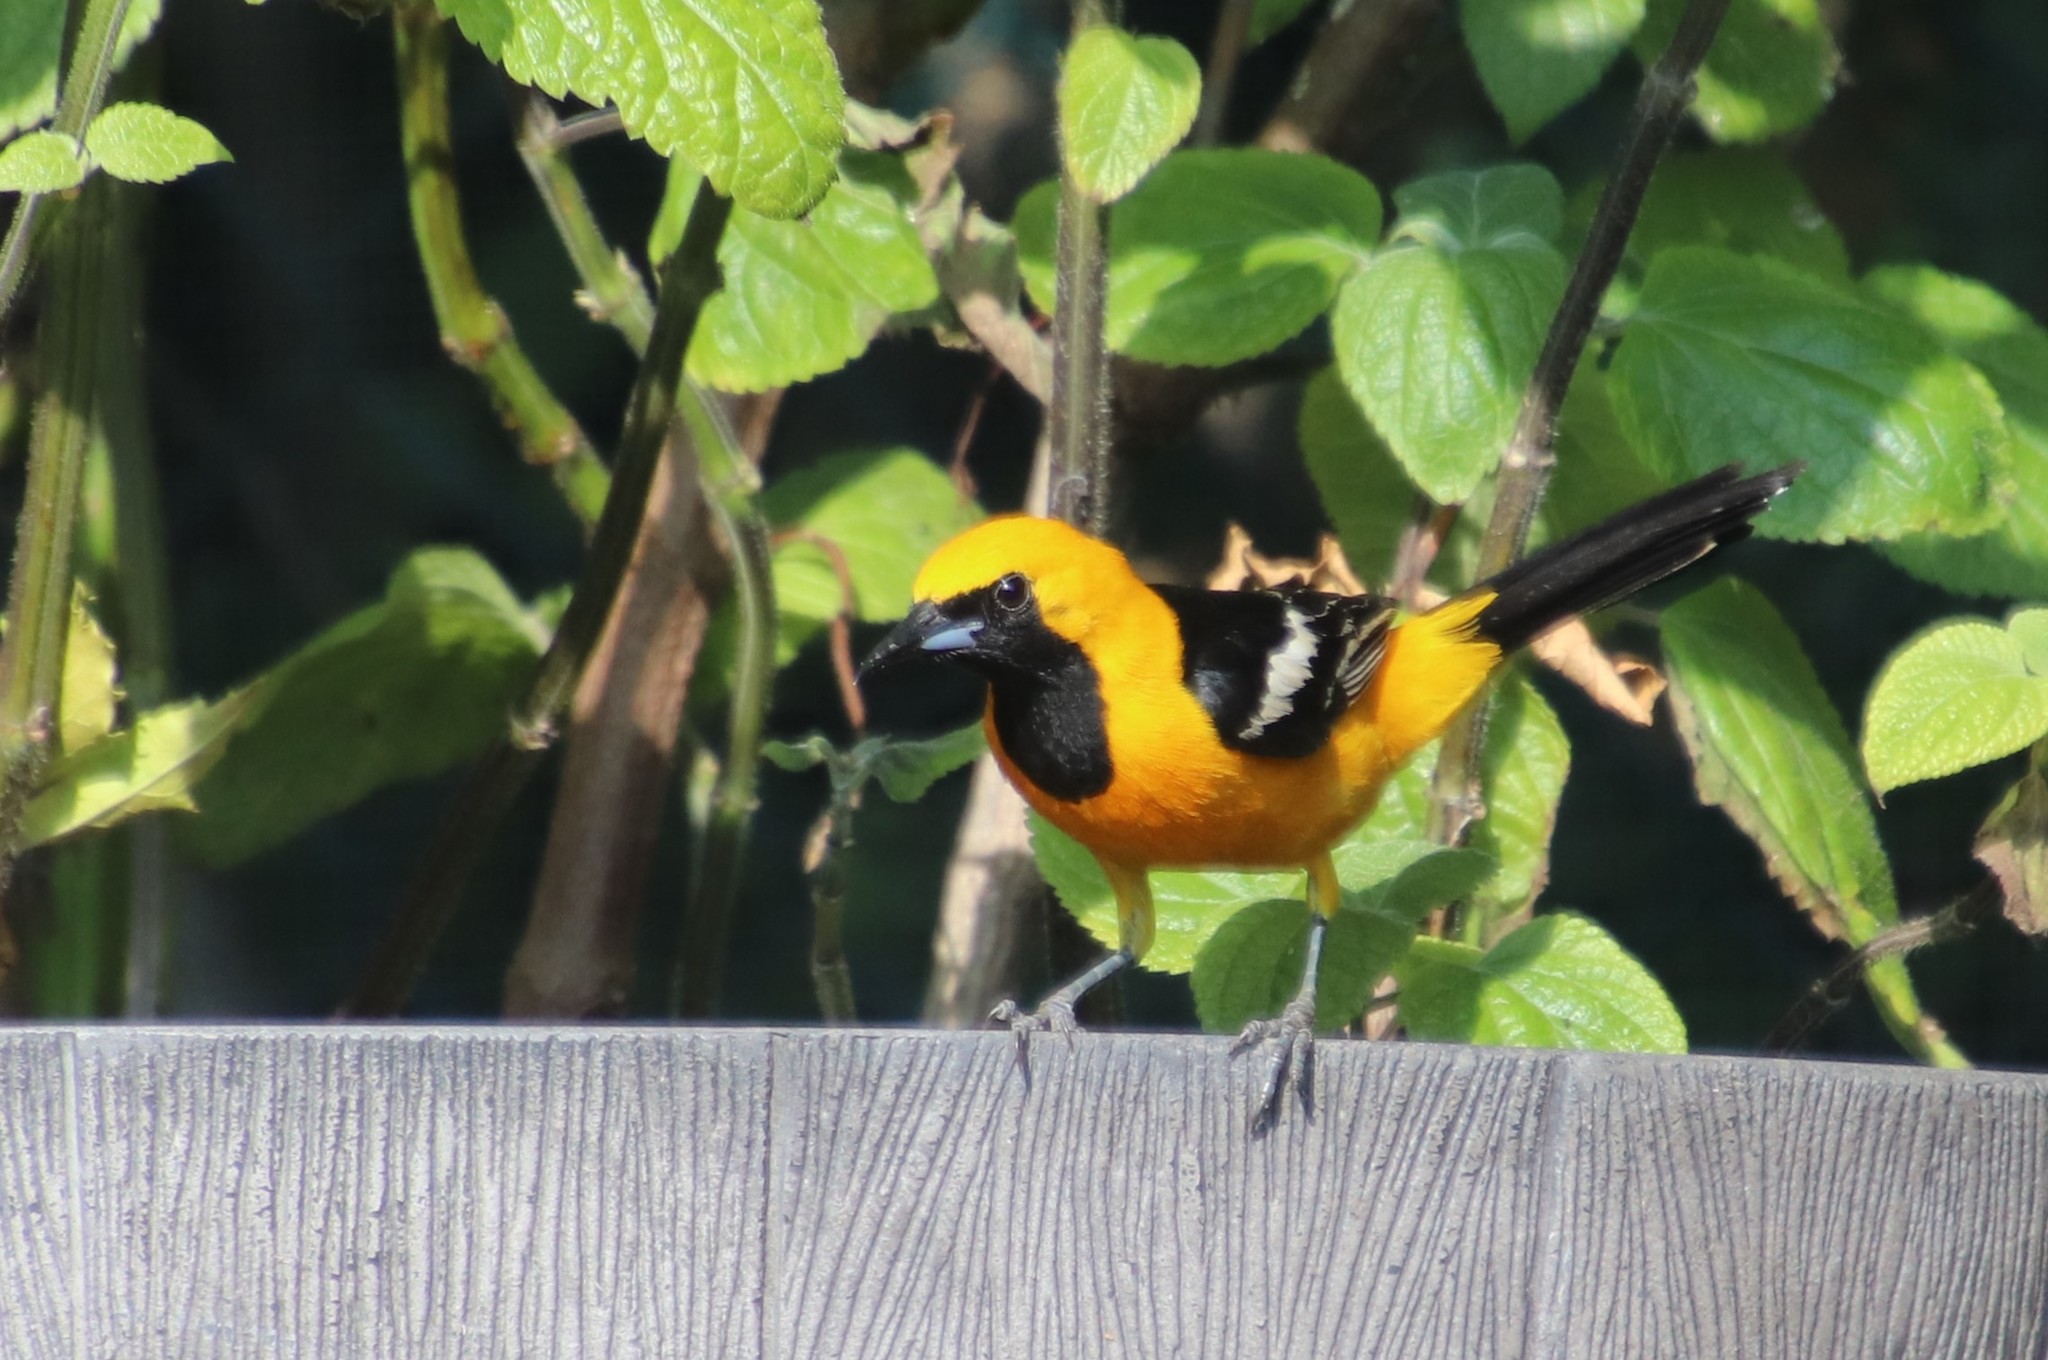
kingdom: Animalia
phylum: Chordata
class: Aves
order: Passeriformes
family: Icteridae
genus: Icterus
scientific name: Icterus cucullatus
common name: Hooded oriole
